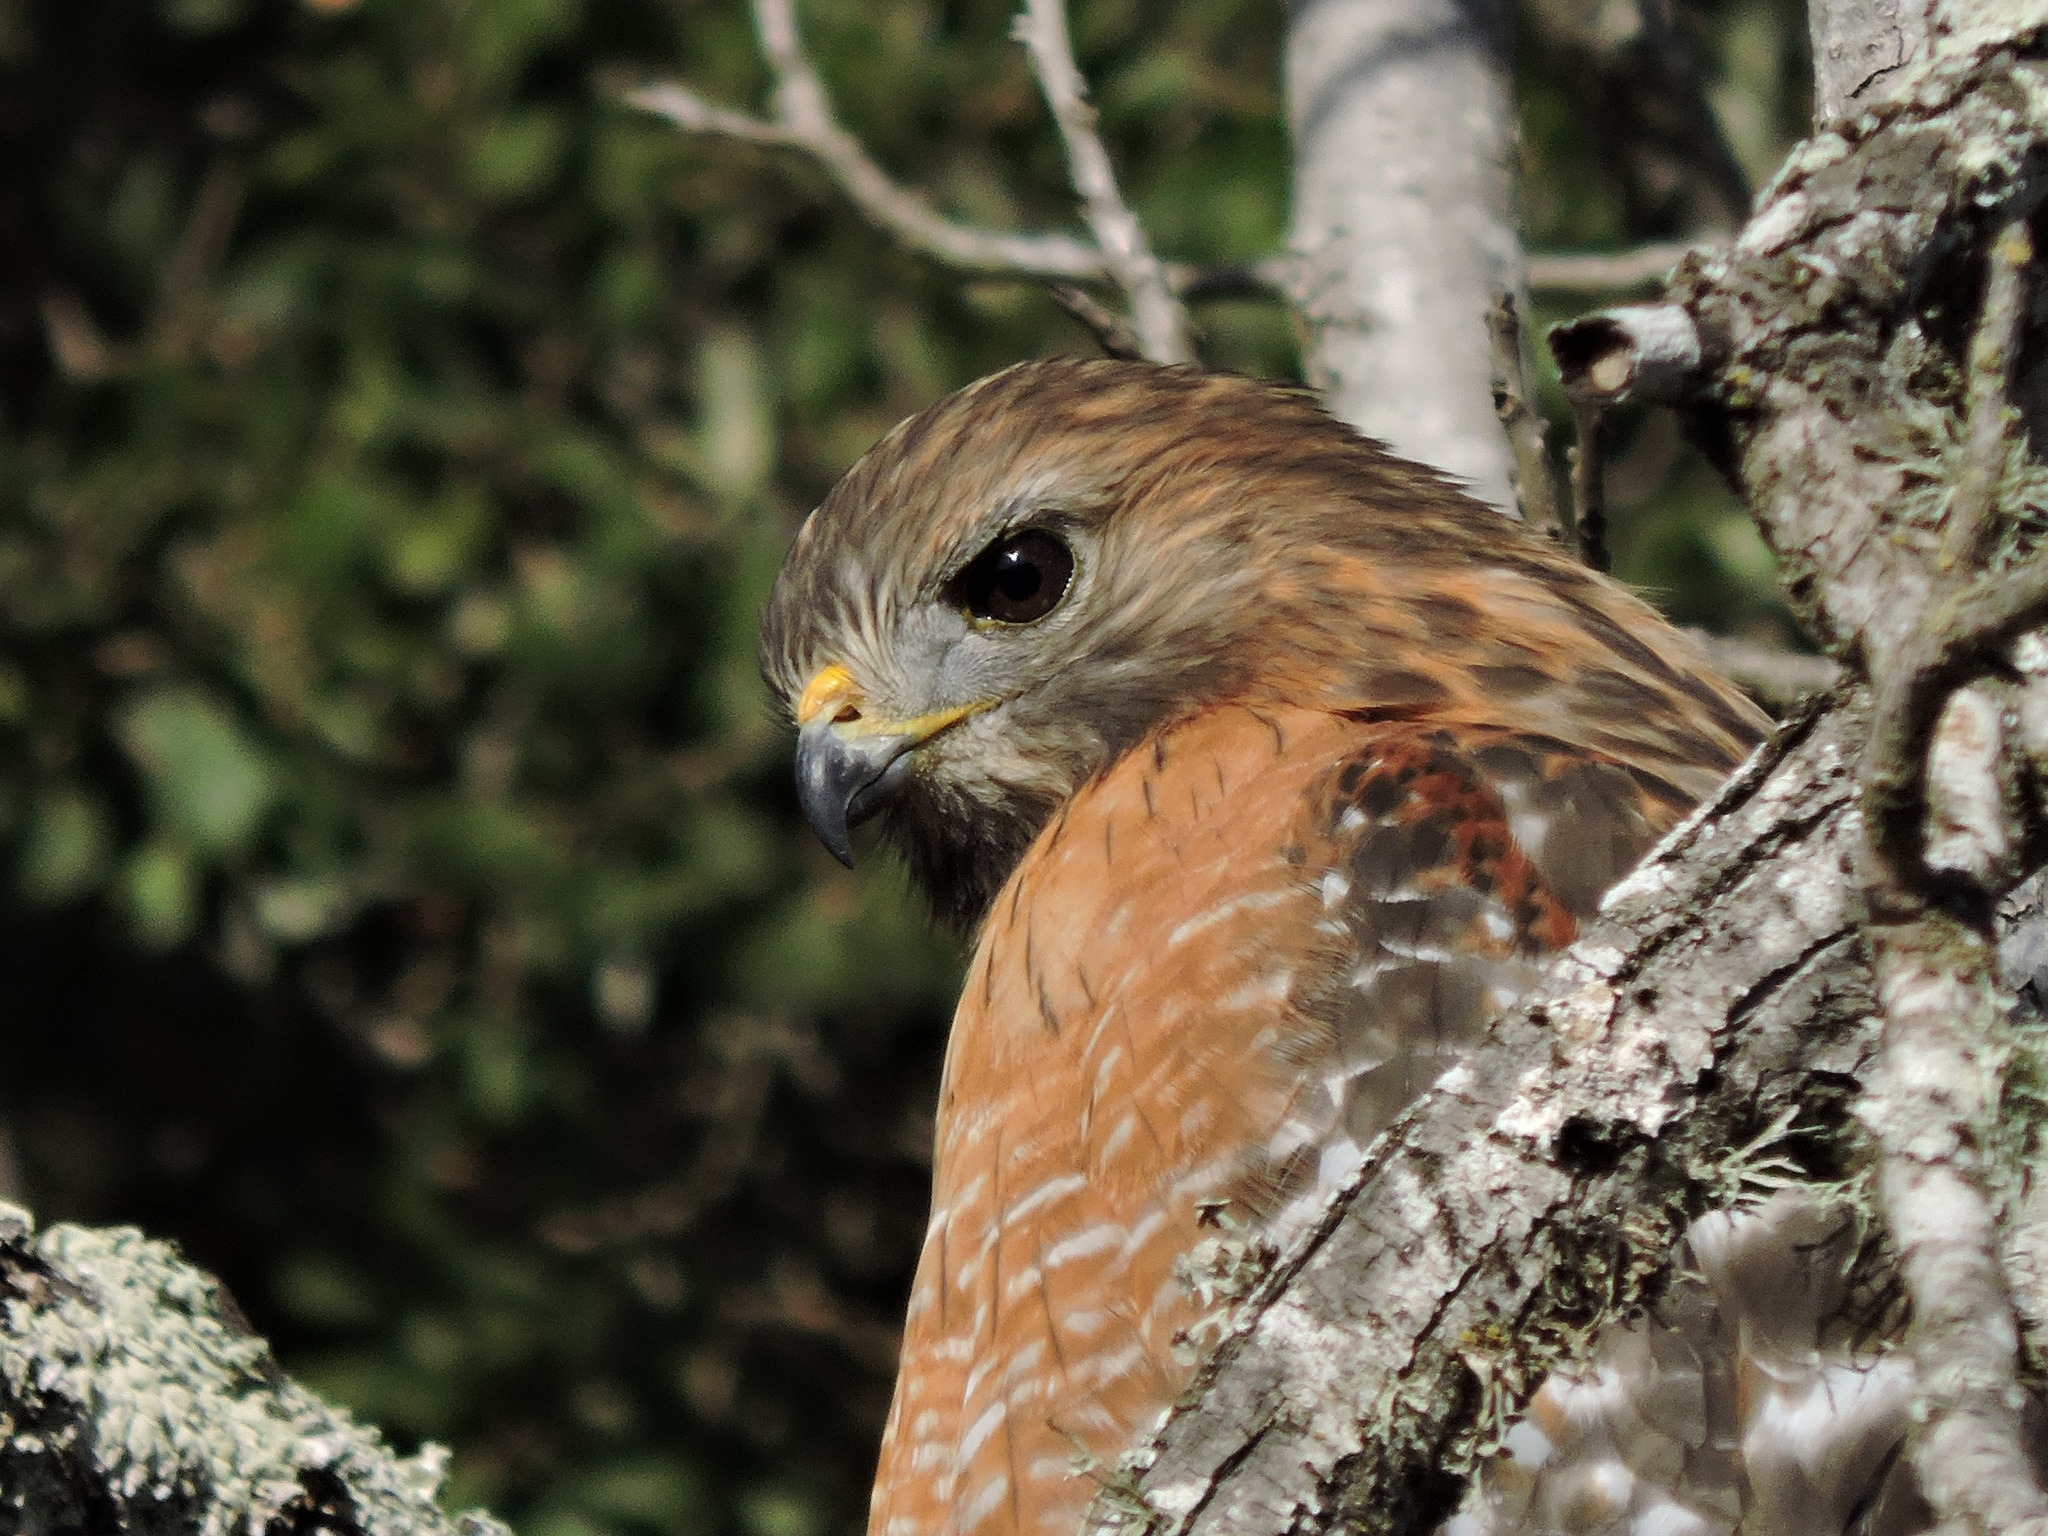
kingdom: Animalia
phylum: Chordata
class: Aves
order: Accipitriformes
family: Accipitridae
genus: Buteo
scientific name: Buteo lineatus
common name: Red-shouldered hawk
